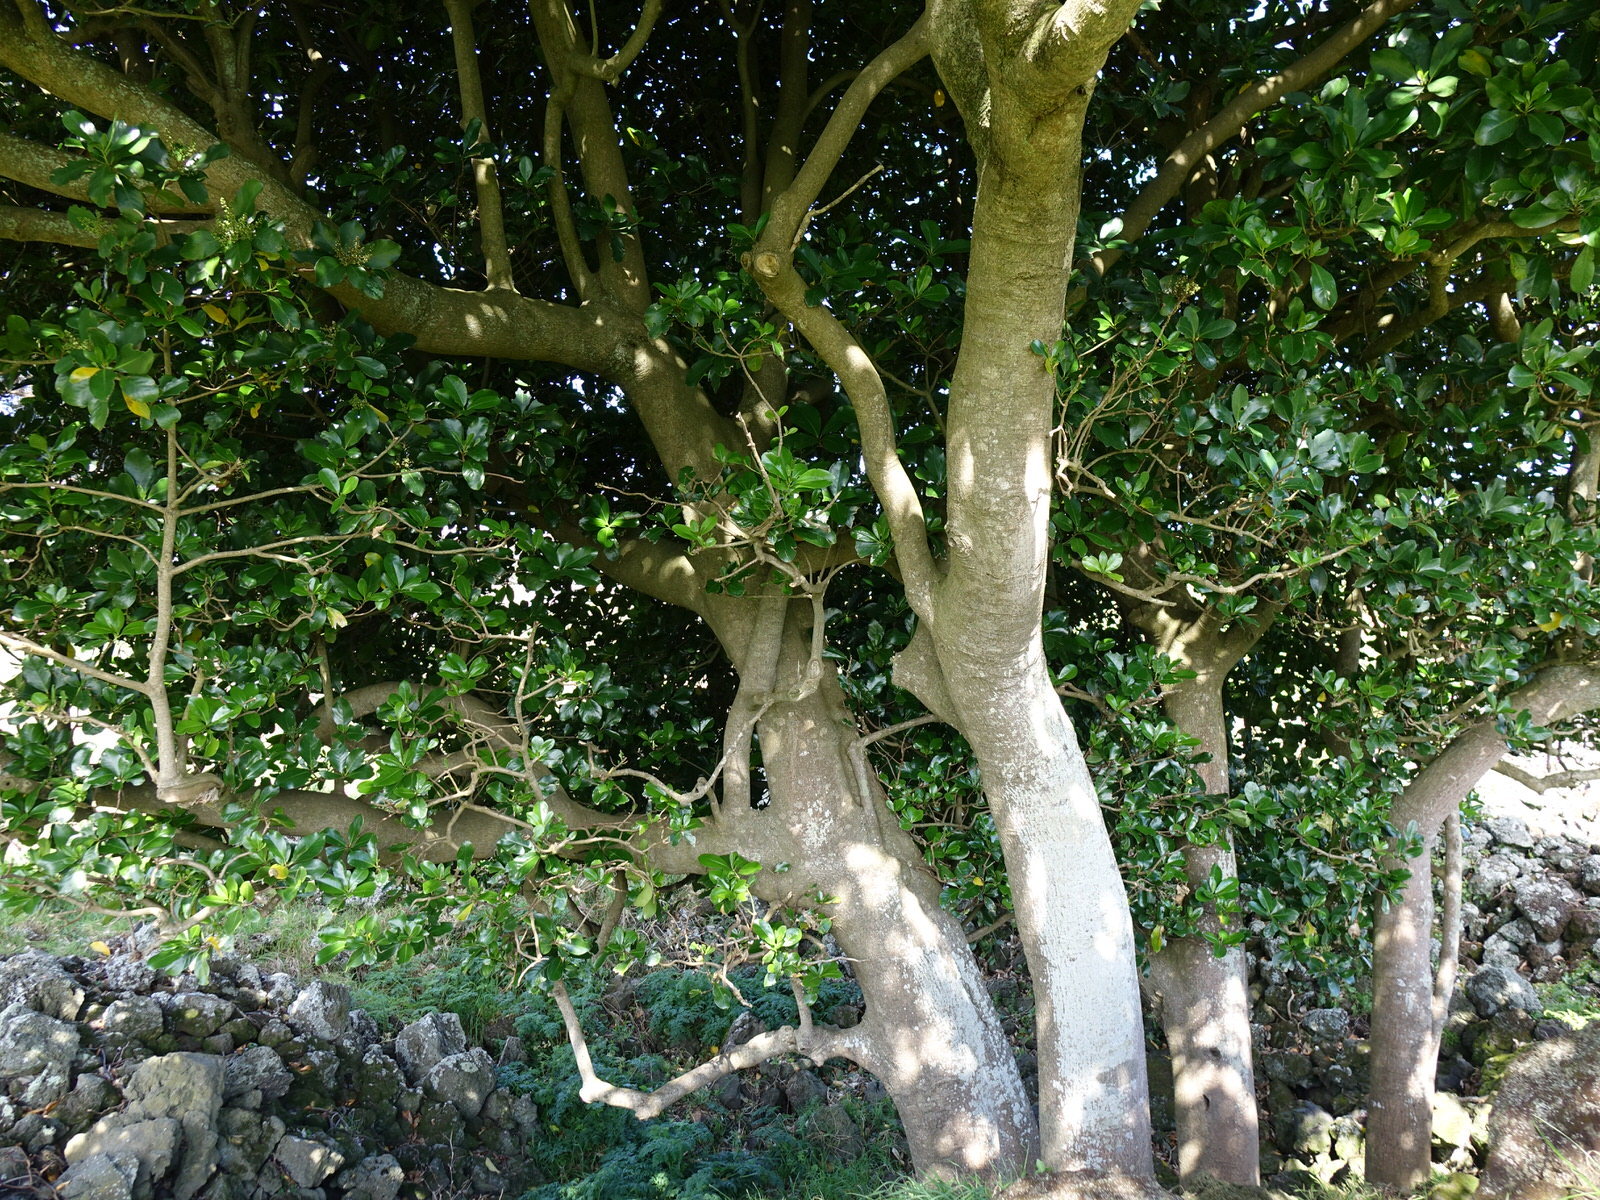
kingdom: Plantae
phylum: Tracheophyta
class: Magnoliopsida
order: Cucurbitales
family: Corynocarpaceae
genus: Corynocarpus
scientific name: Corynocarpus laevigatus
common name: New zealand laurel
